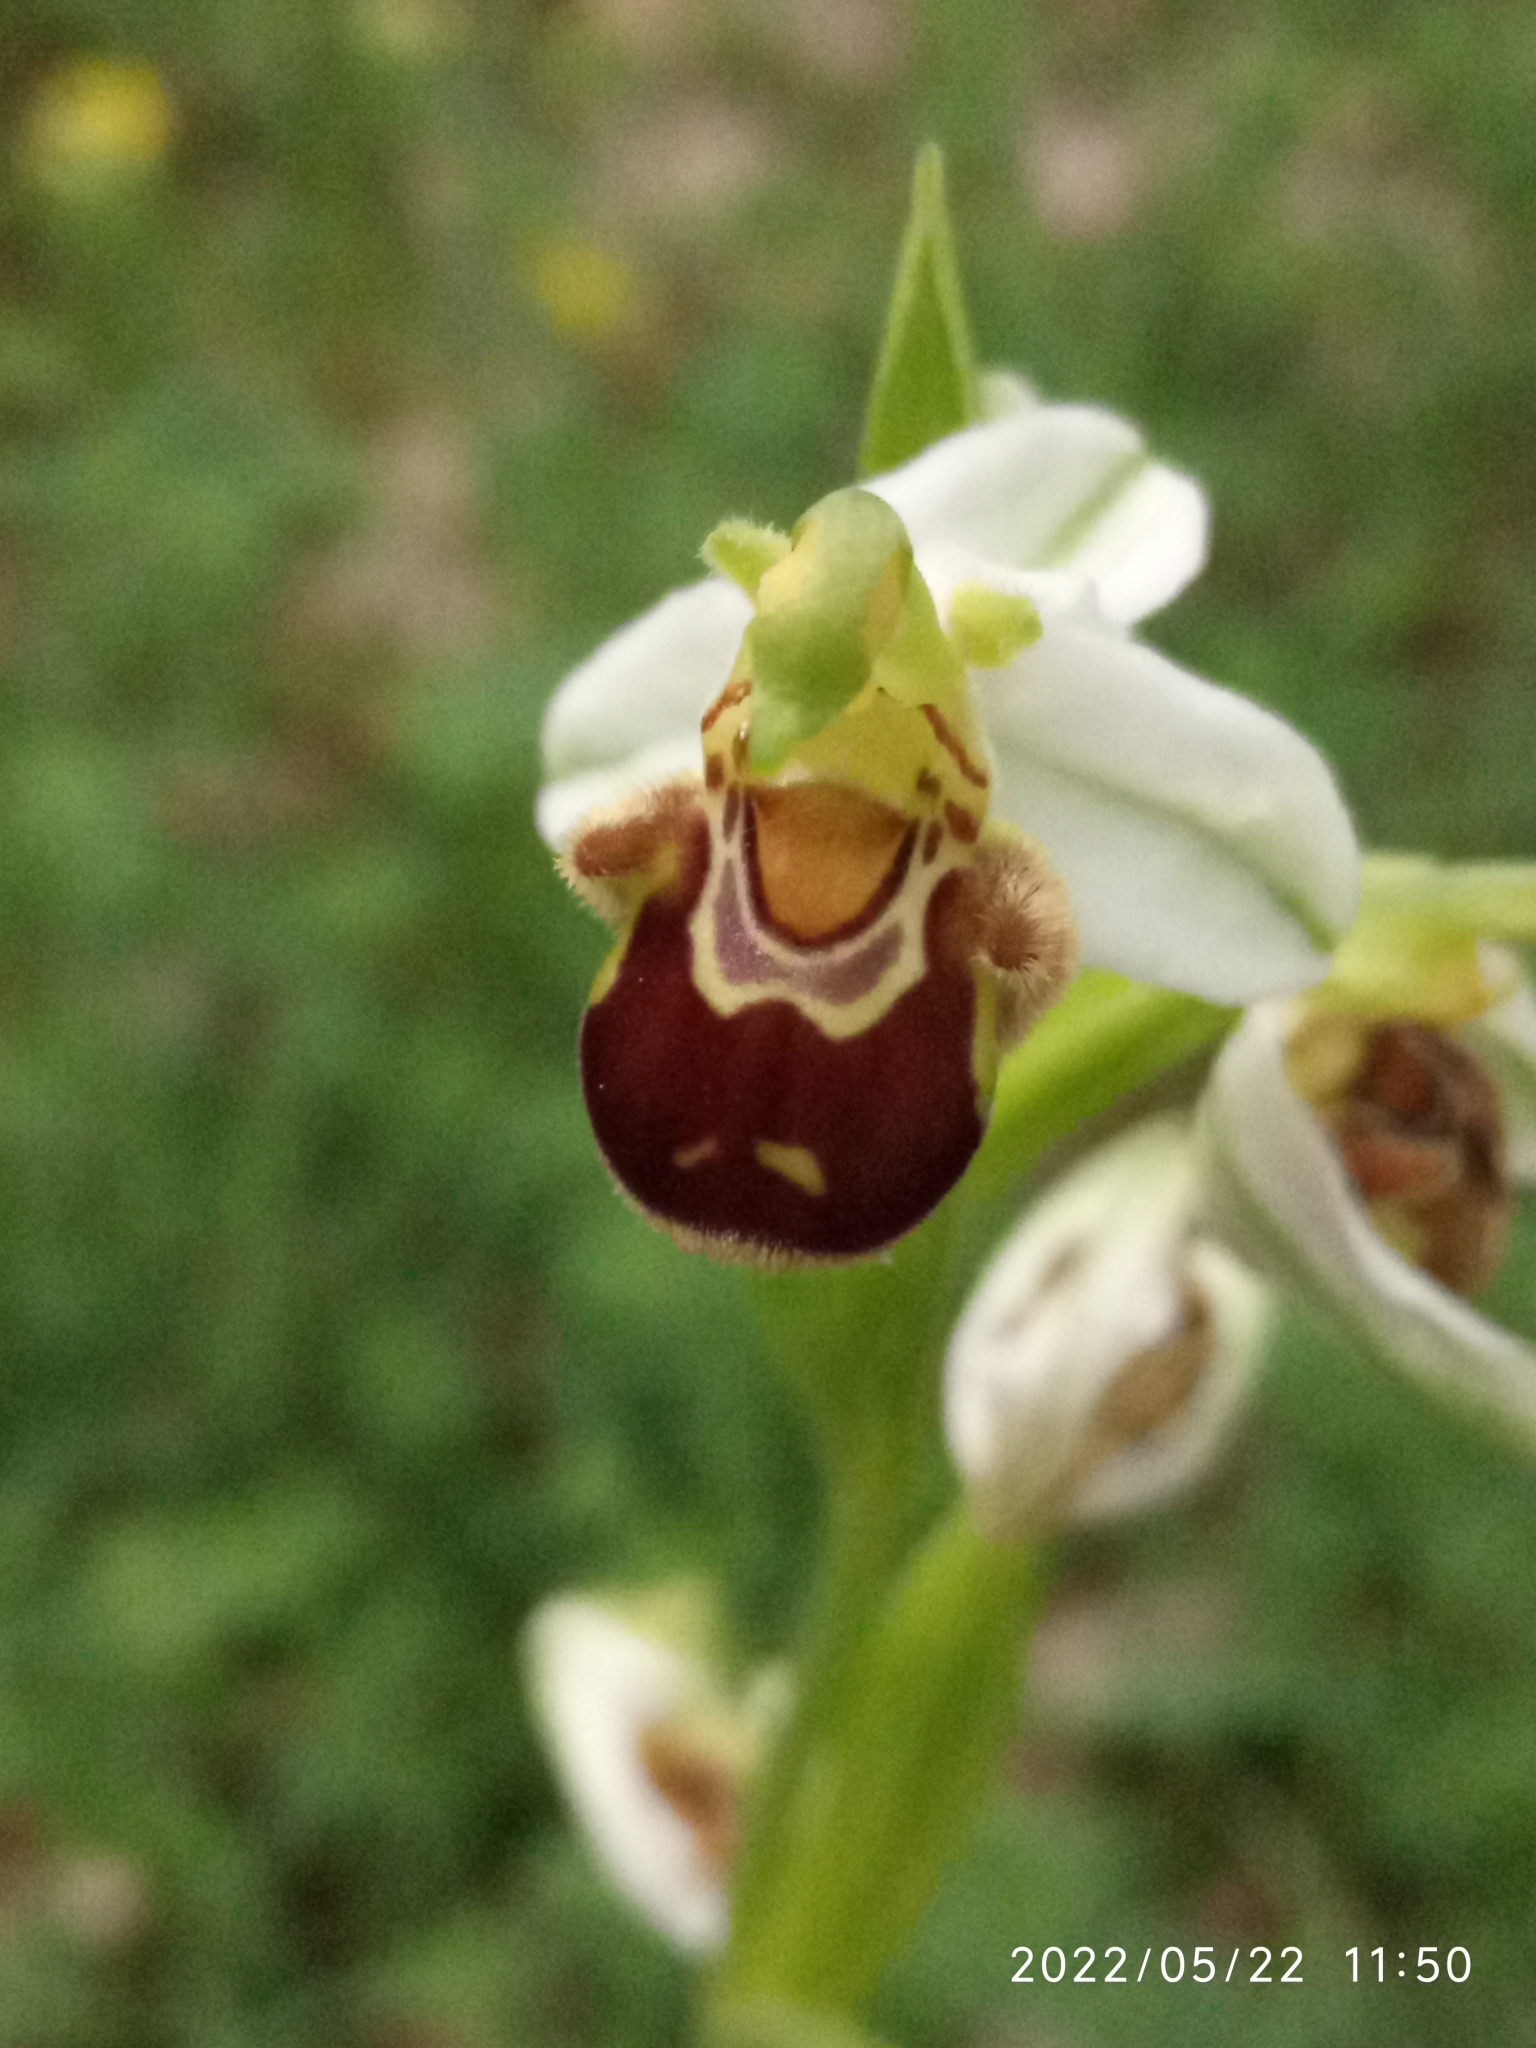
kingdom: Plantae
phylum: Tracheophyta
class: Liliopsida
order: Asparagales
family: Orchidaceae
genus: Ophrys
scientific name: Ophrys apifera
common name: Bee orchid
